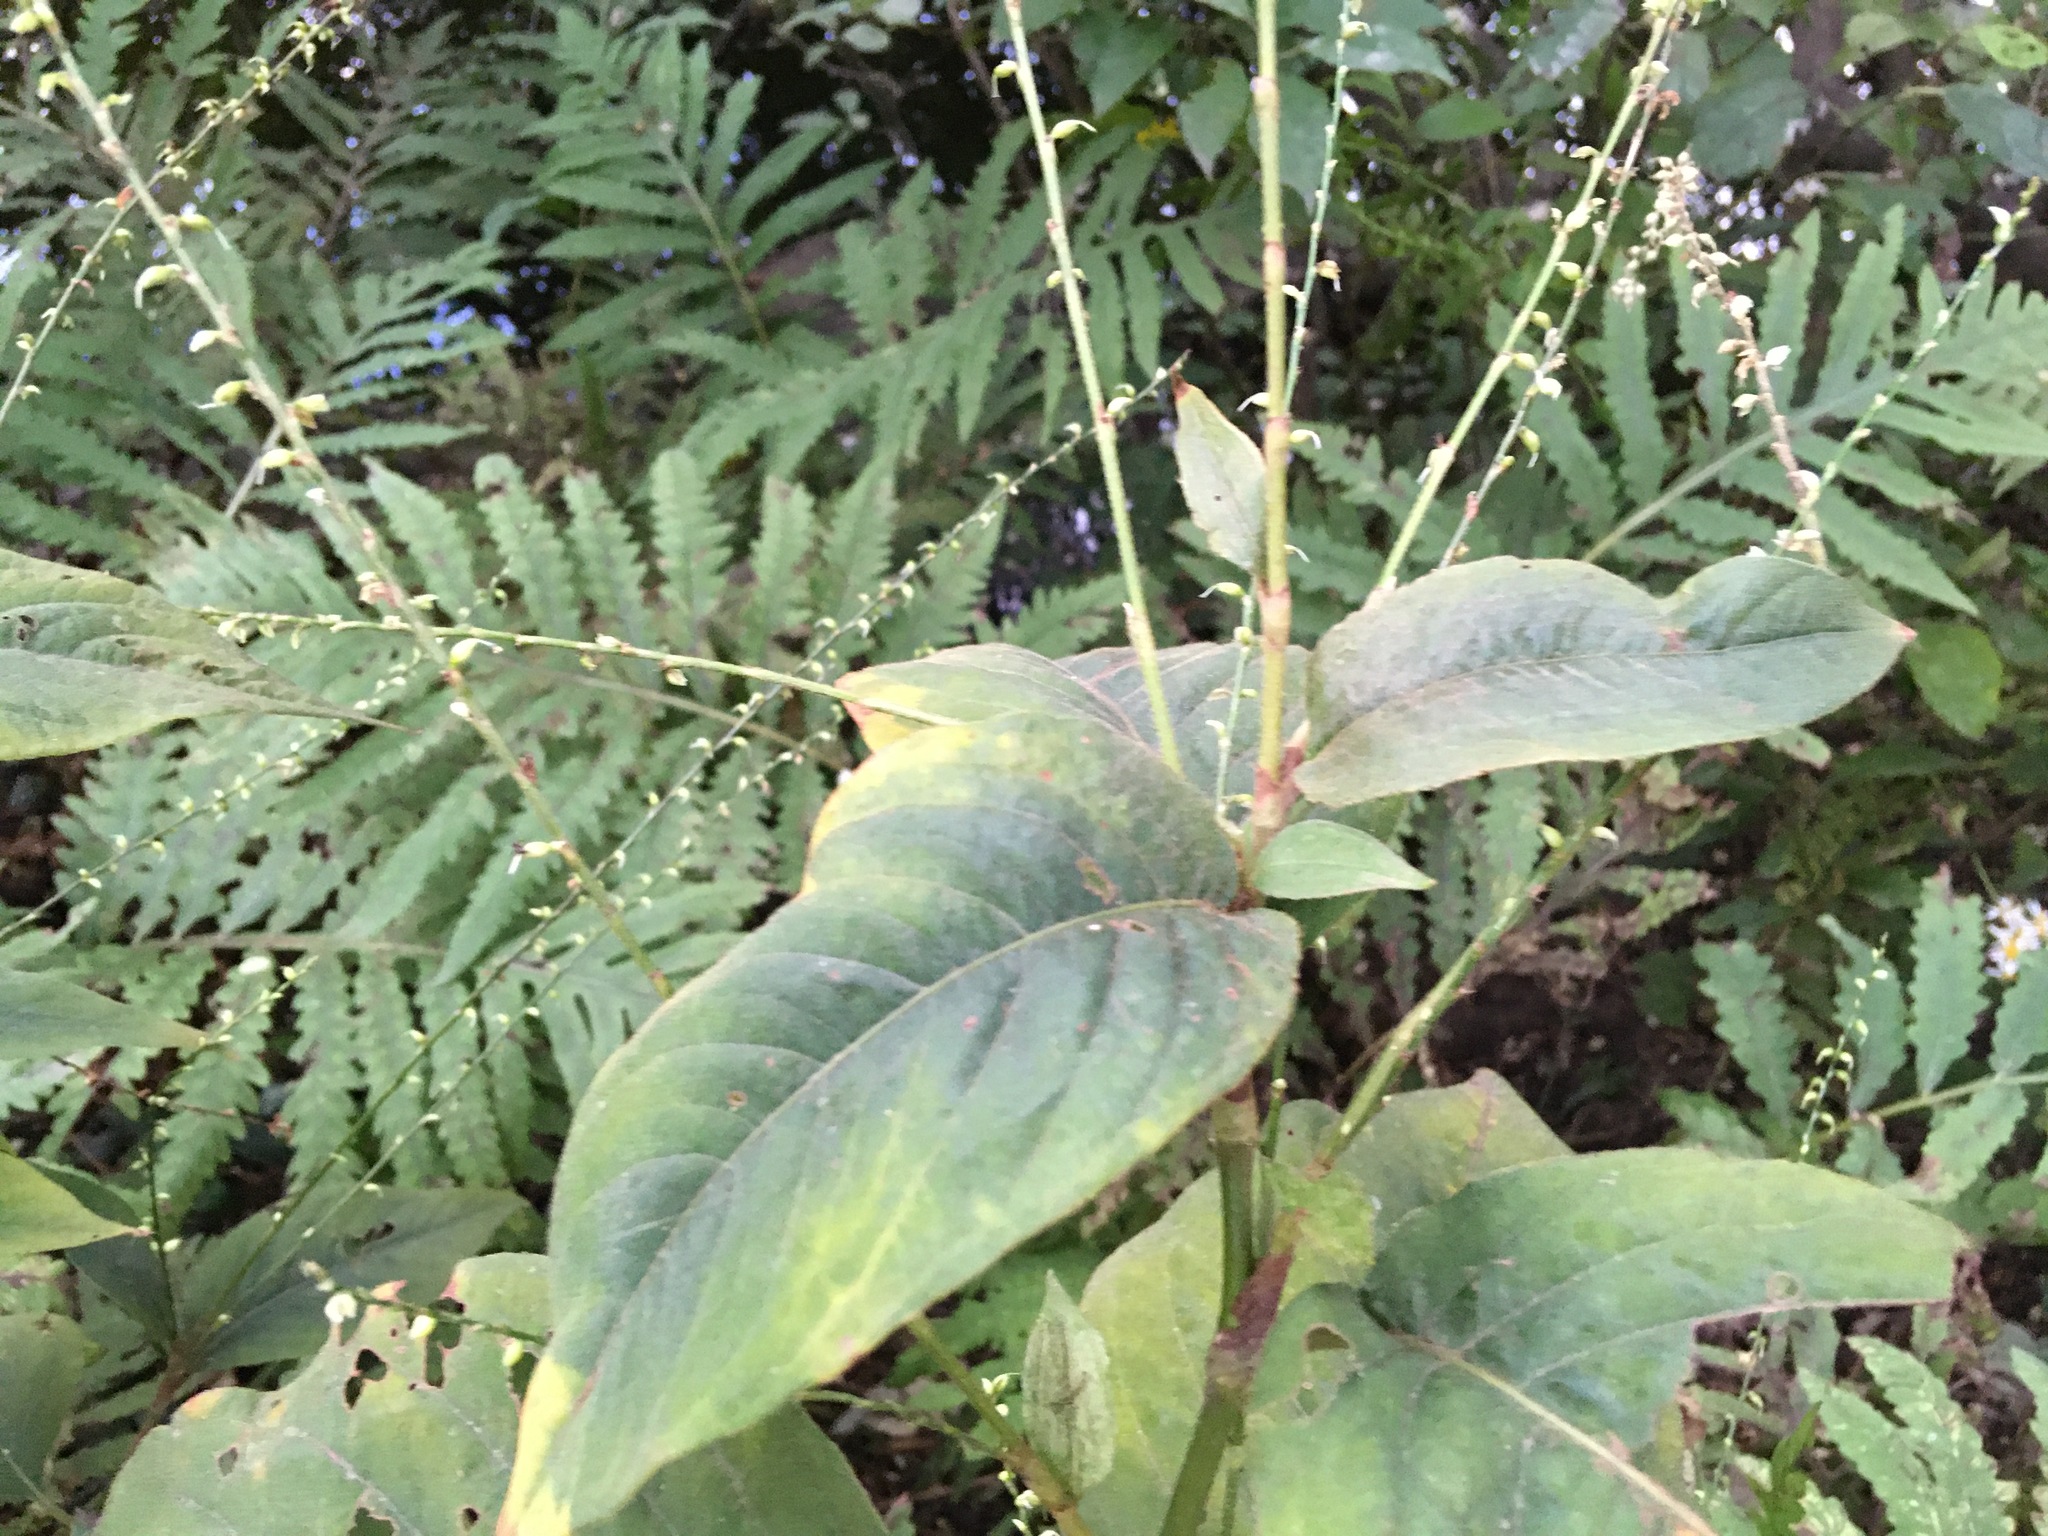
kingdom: Plantae
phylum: Tracheophyta
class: Magnoliopsida
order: Caryophyllales
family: Polygonaceae
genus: Persicaria
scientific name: Persicaria virginiana
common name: Jumpseed
